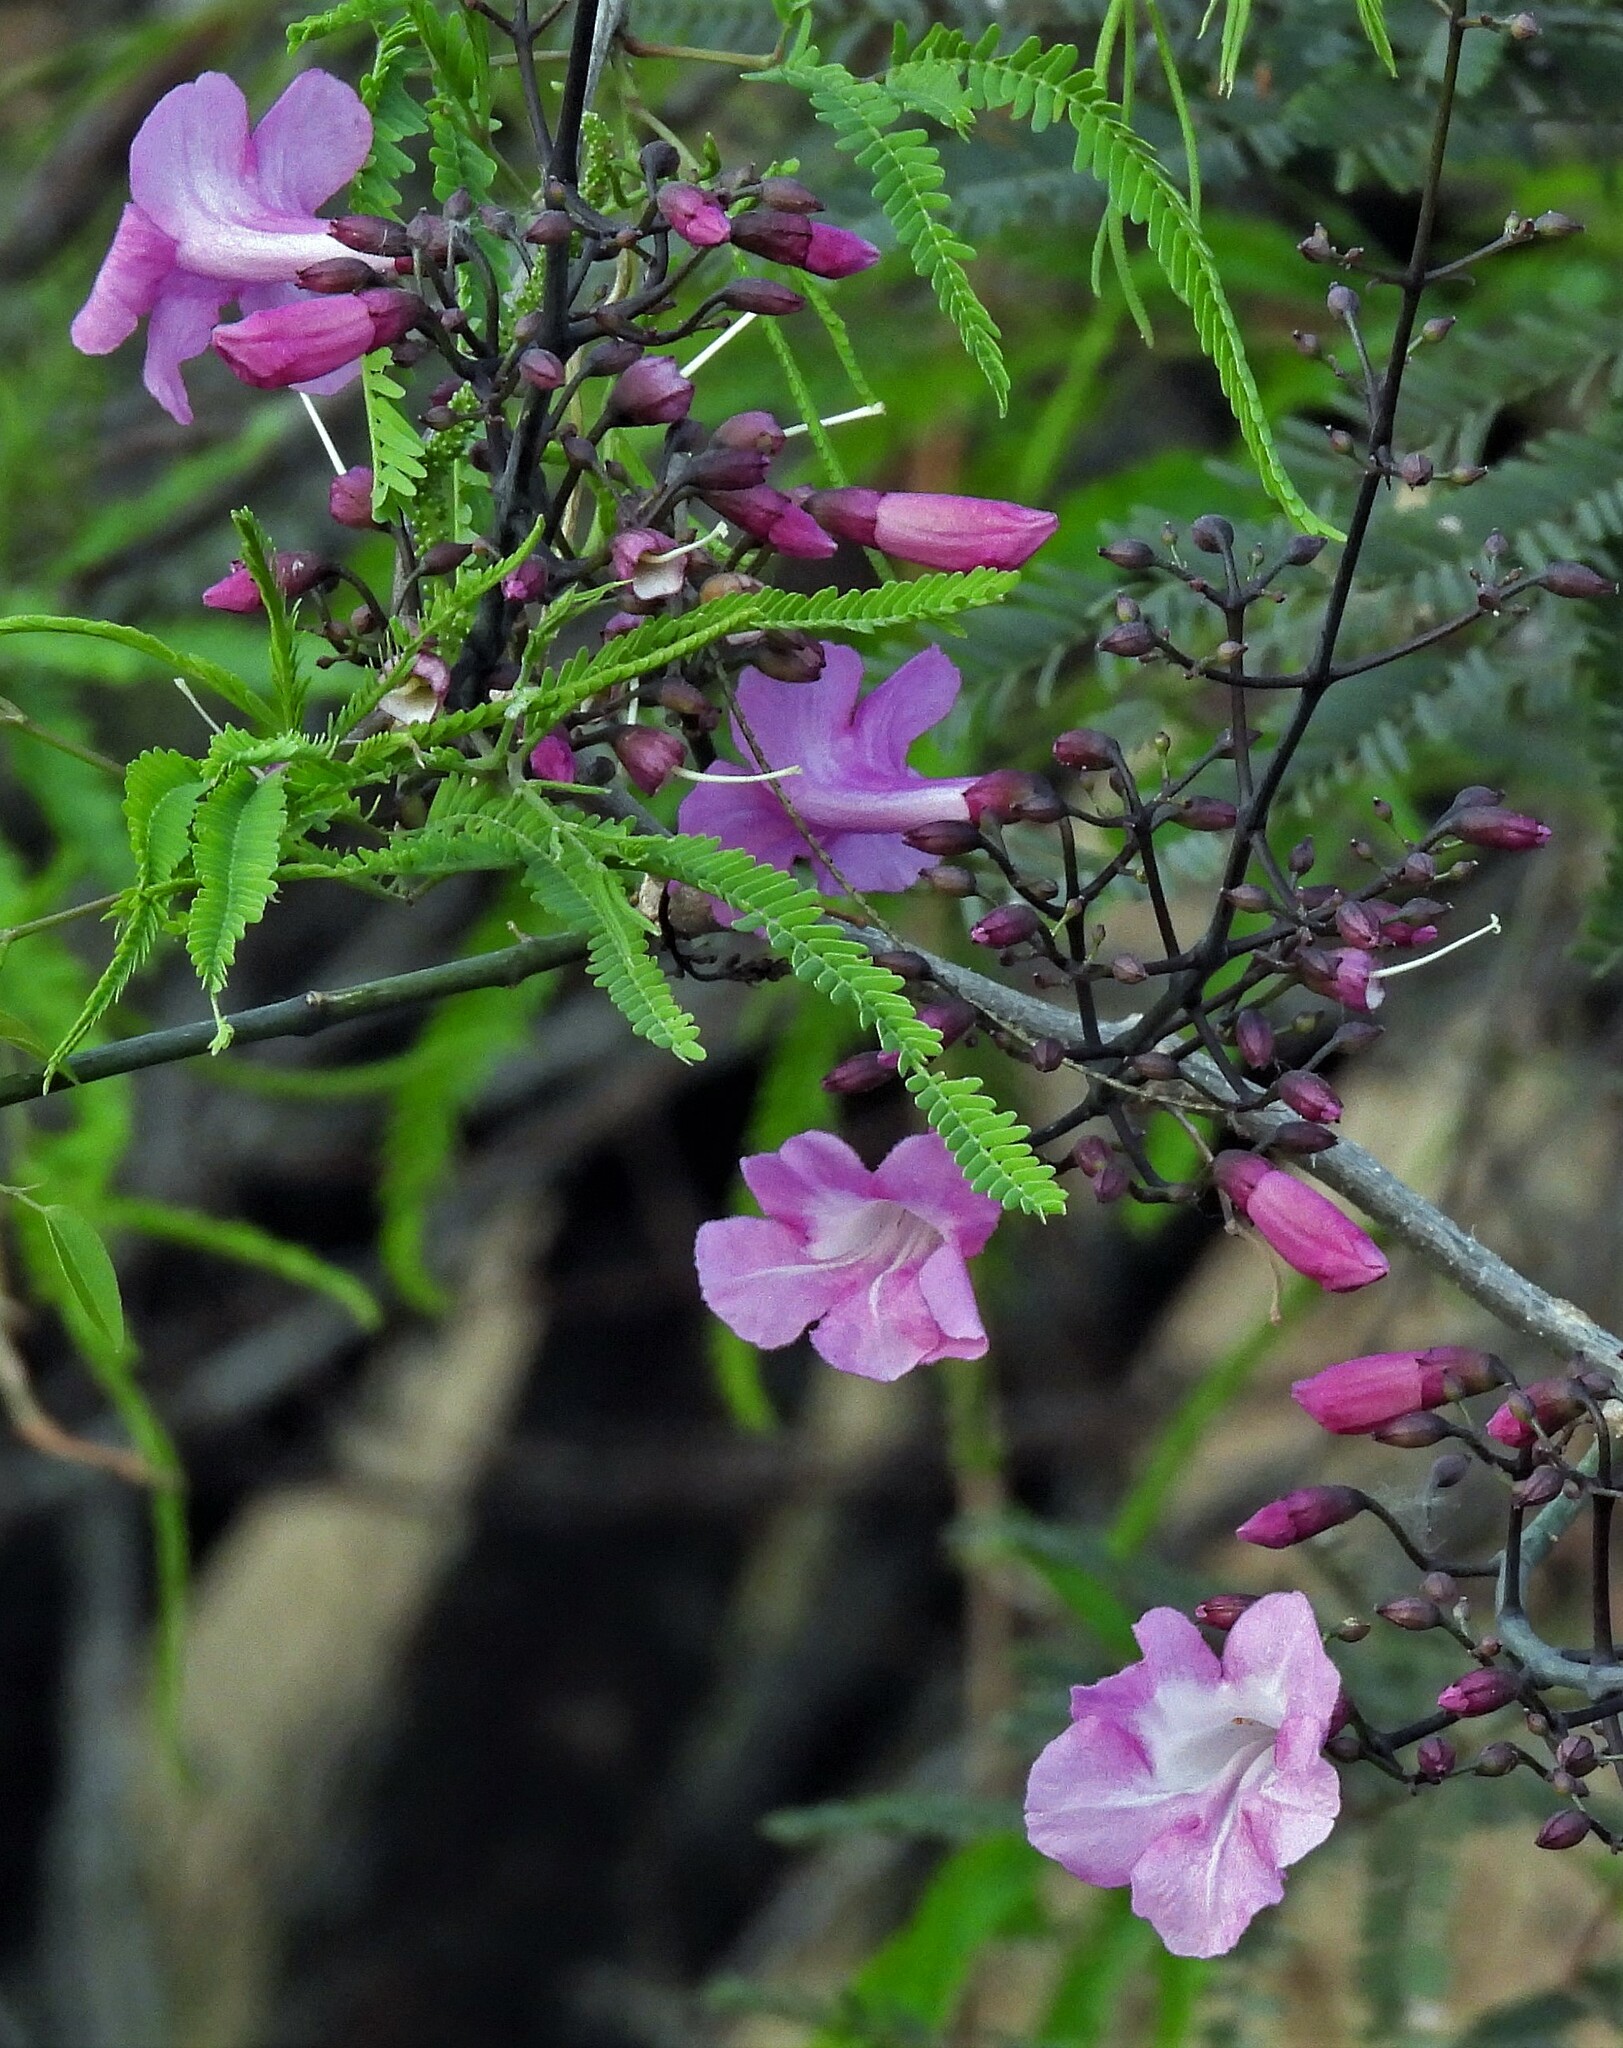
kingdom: Plantae
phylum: Tracheophyta
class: Magnoliopsida
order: Lamiales
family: Bignoniaceae
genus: Tanaecium
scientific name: Tanaecium dichotomum
